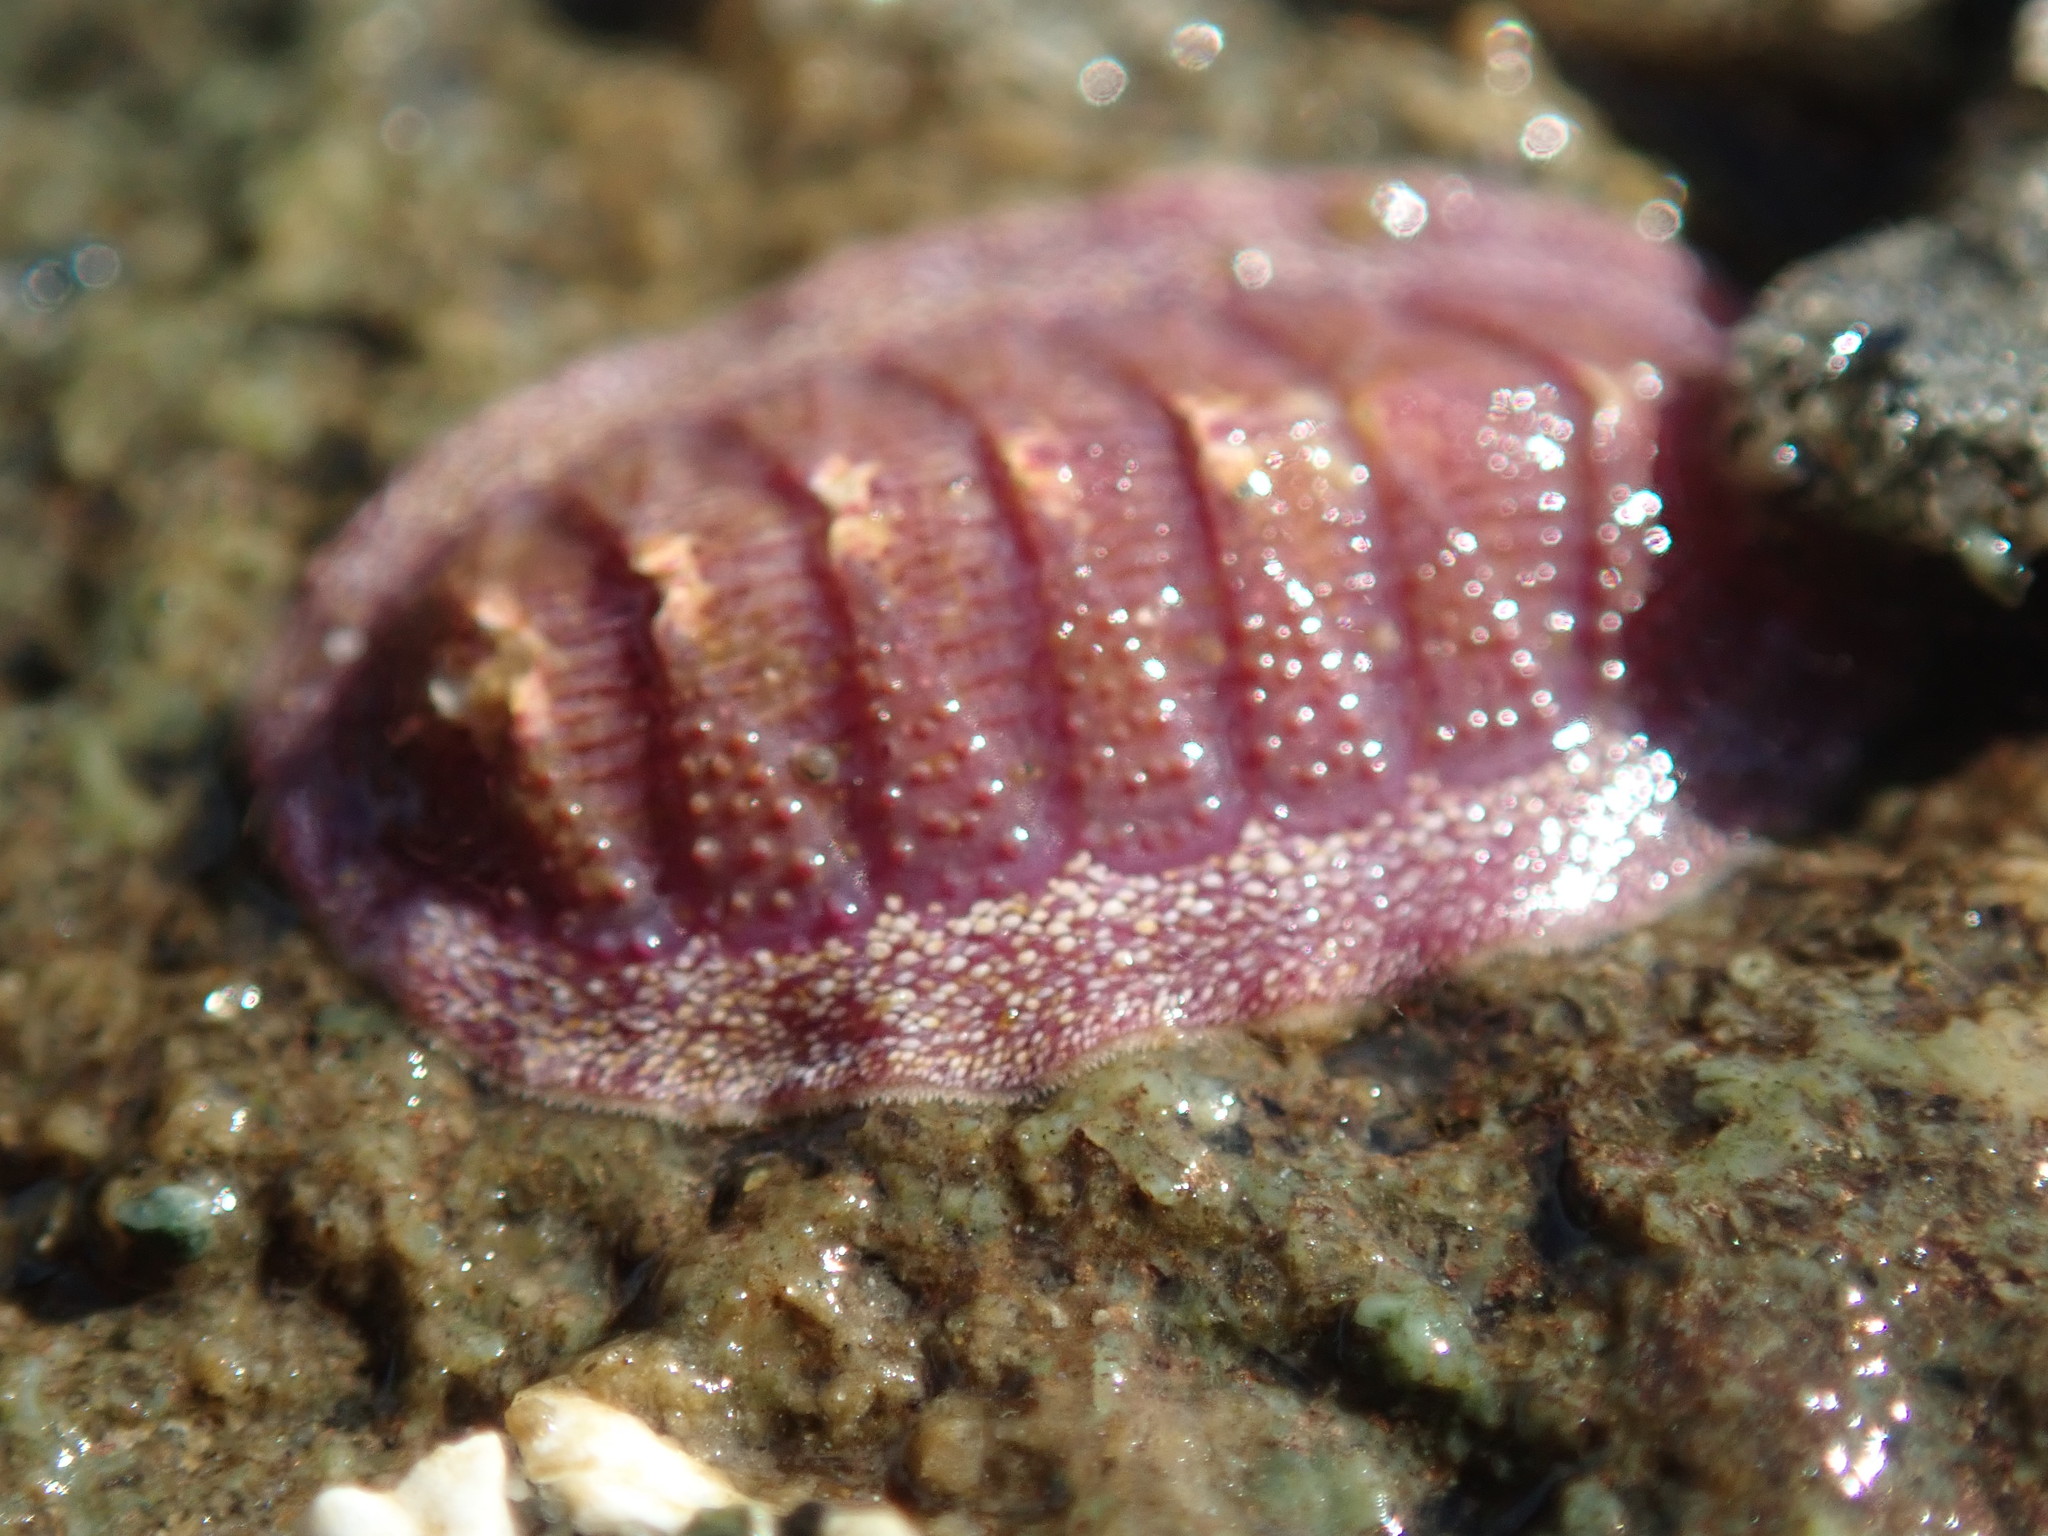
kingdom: Animalia
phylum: Mollusca
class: Polyplacophora
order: Chitonida
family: Ischnochitonidae
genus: Lepidozona
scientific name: Lepidozona mertensii
